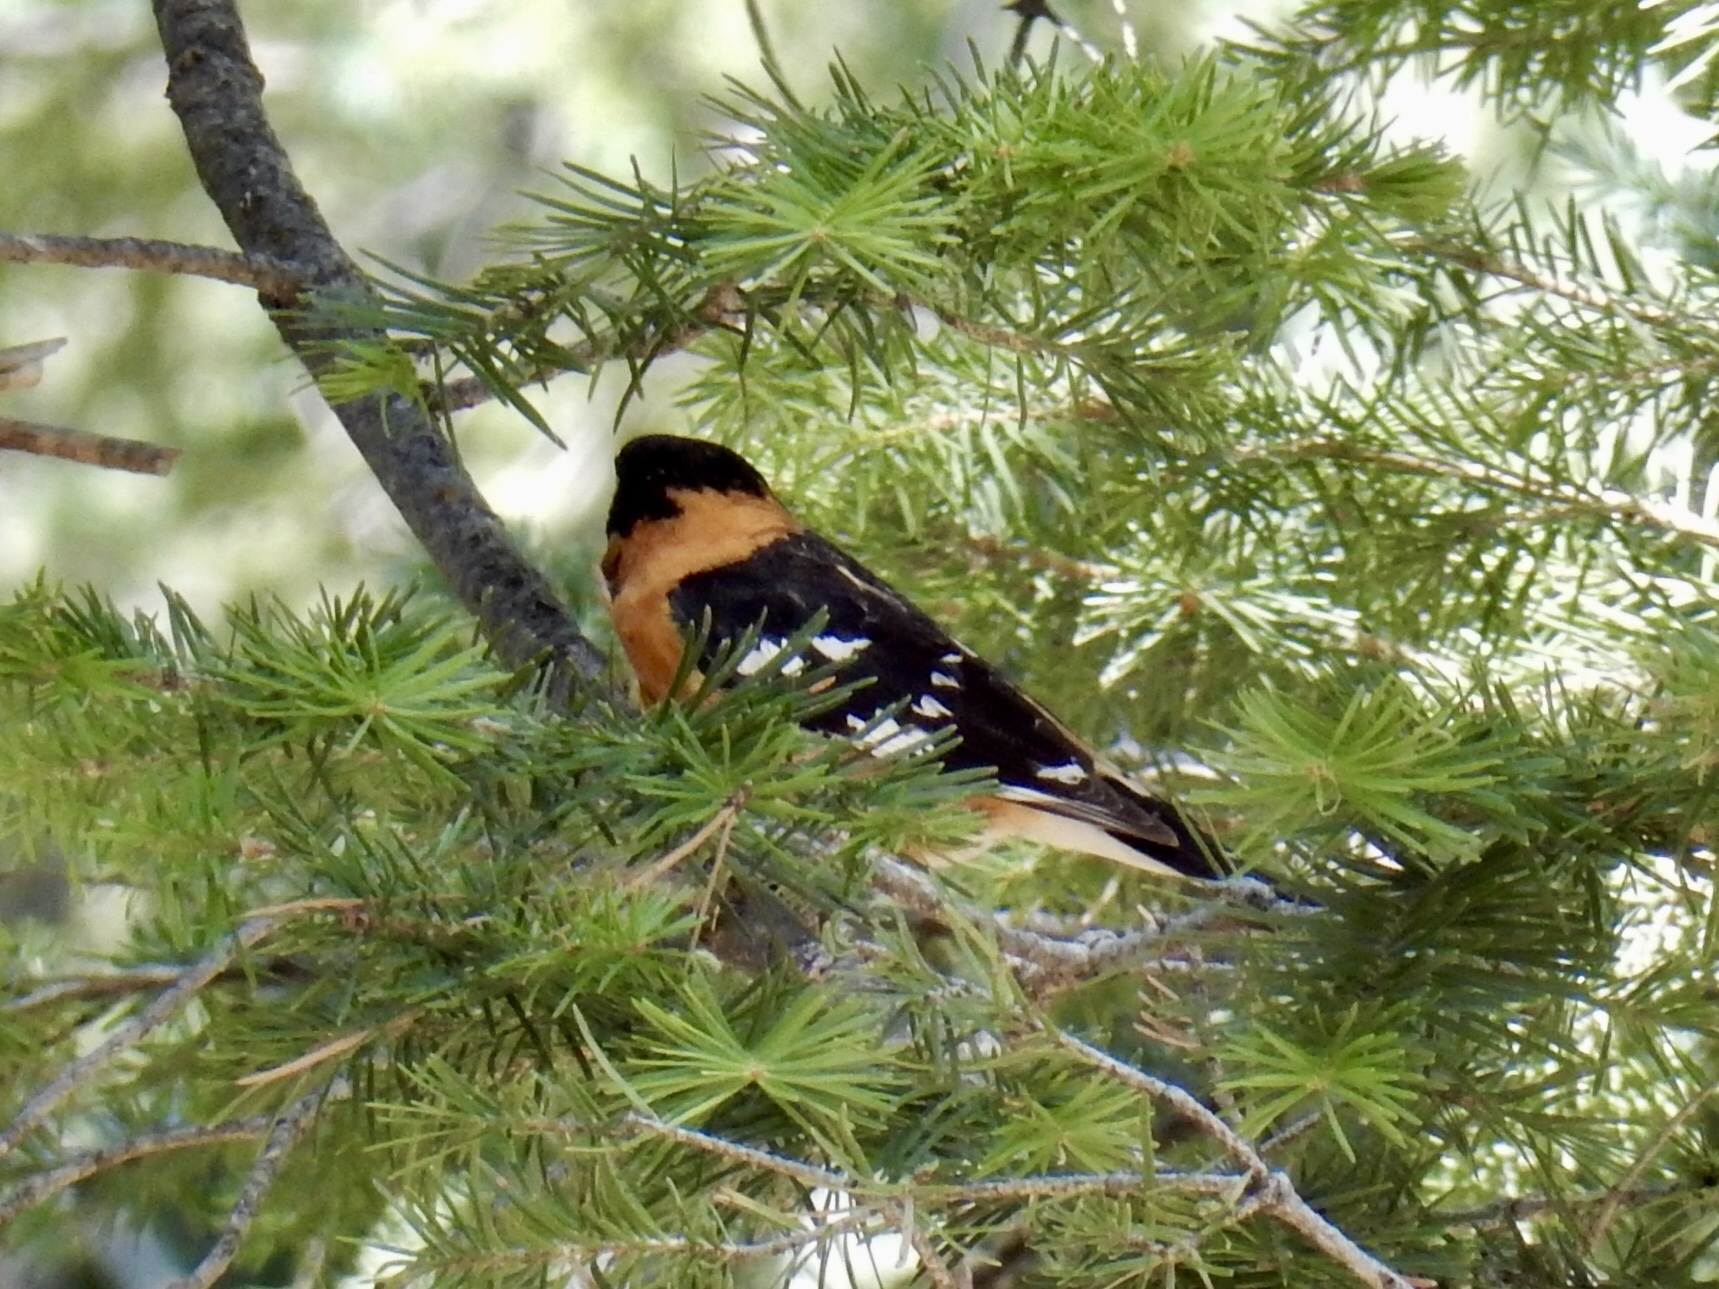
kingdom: Animalia
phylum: Chordata
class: Aves
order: Passeriformes
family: Cardinalidae
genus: Pheucticus
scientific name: Pheucticus melanocephalus
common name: Black-headed grosbeak
